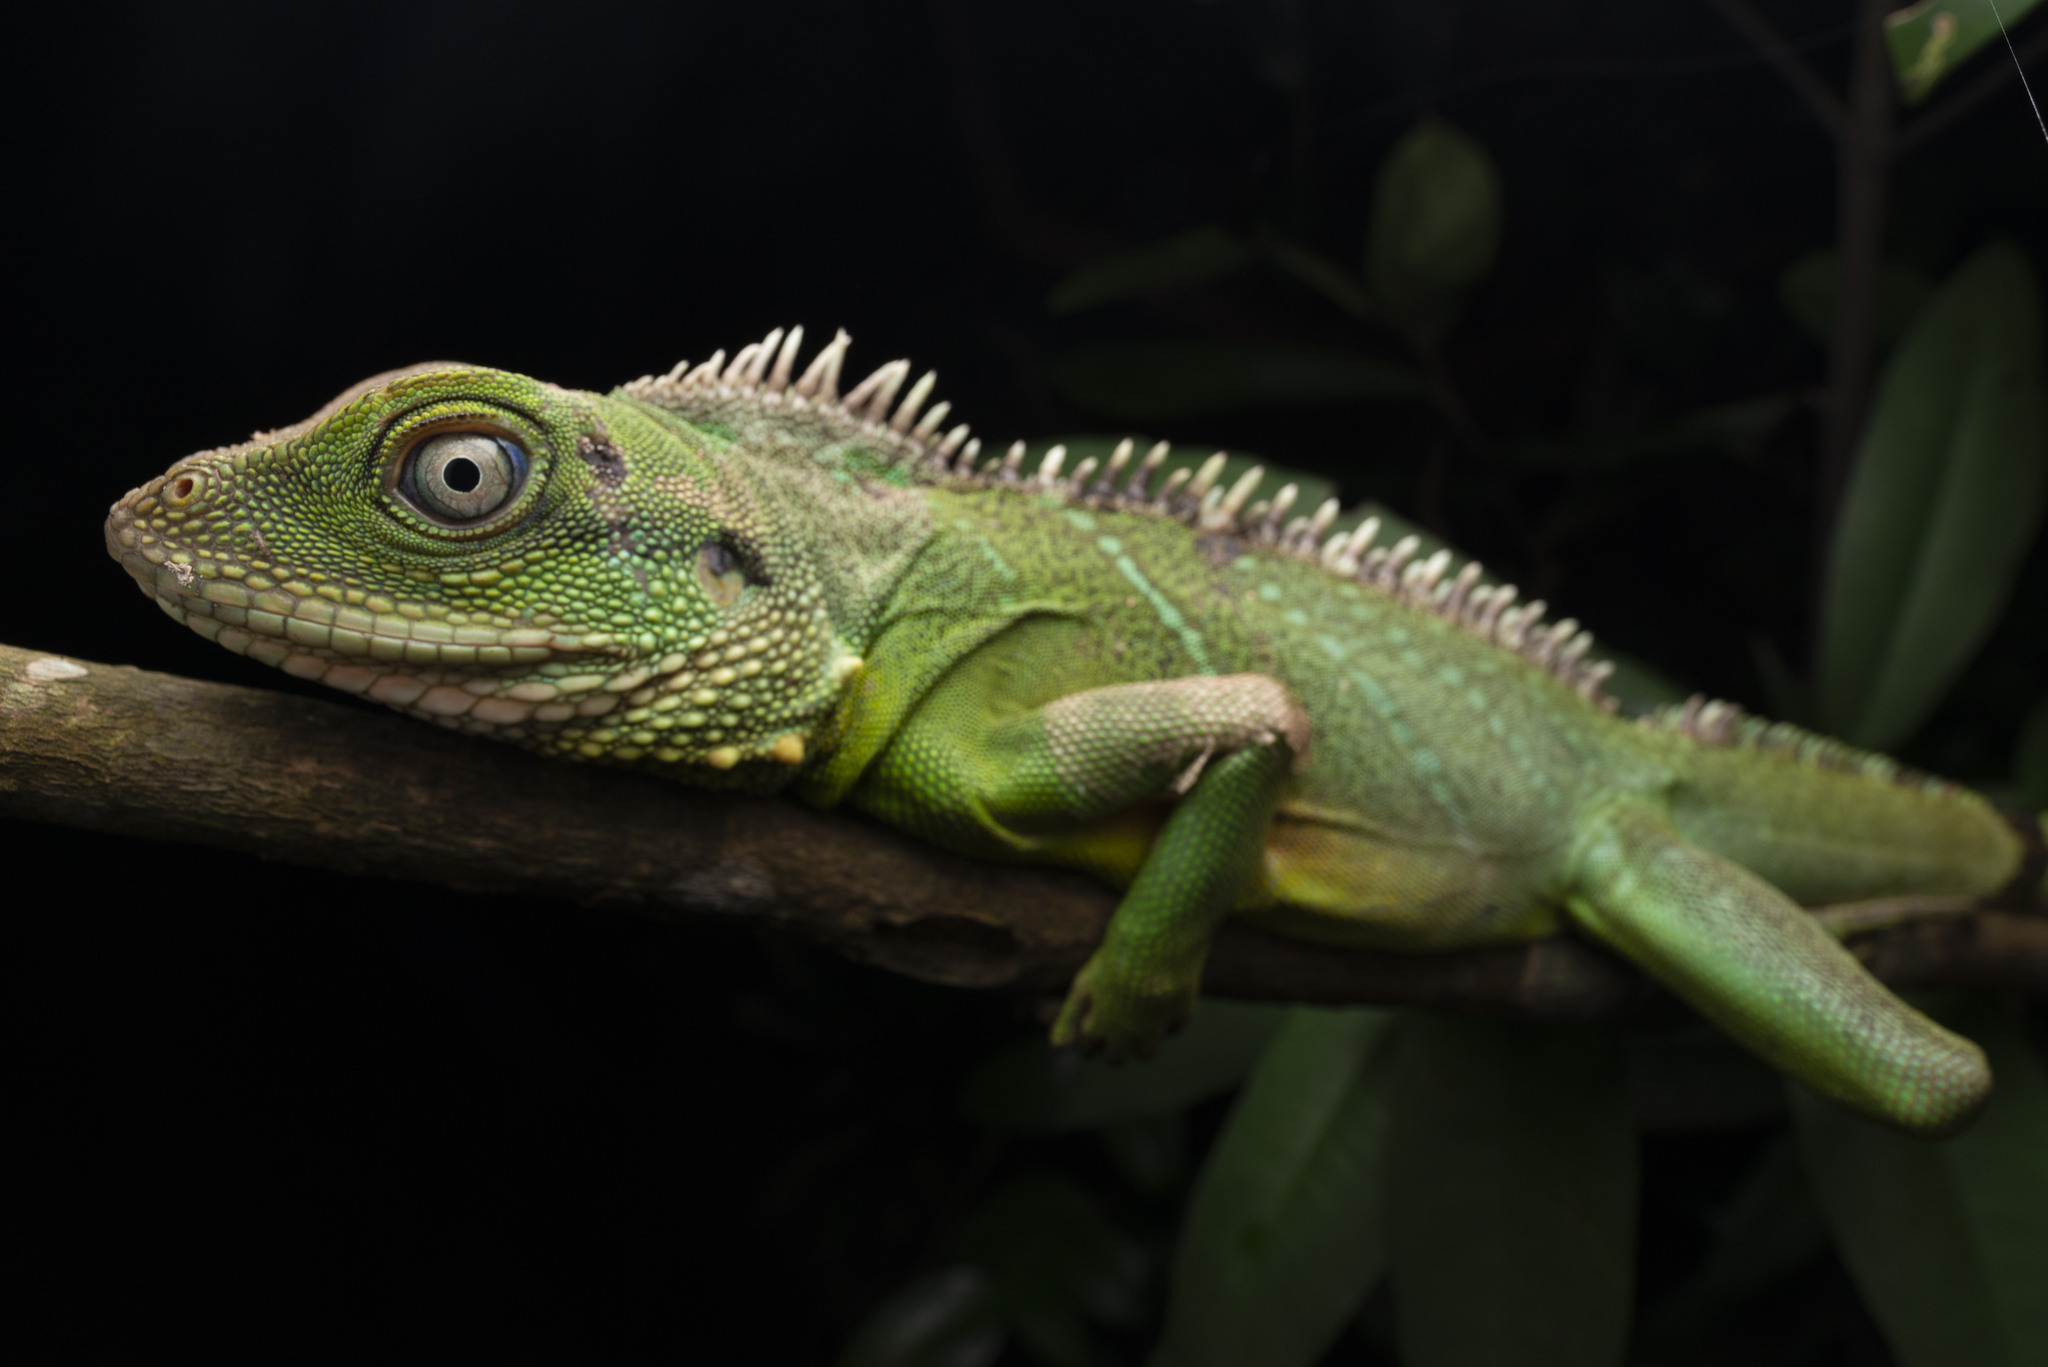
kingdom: Animalia
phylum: Chordata
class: Squamata
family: Agamidae
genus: Physignathus
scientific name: Physignathus cocincinus
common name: Asian water dragon
